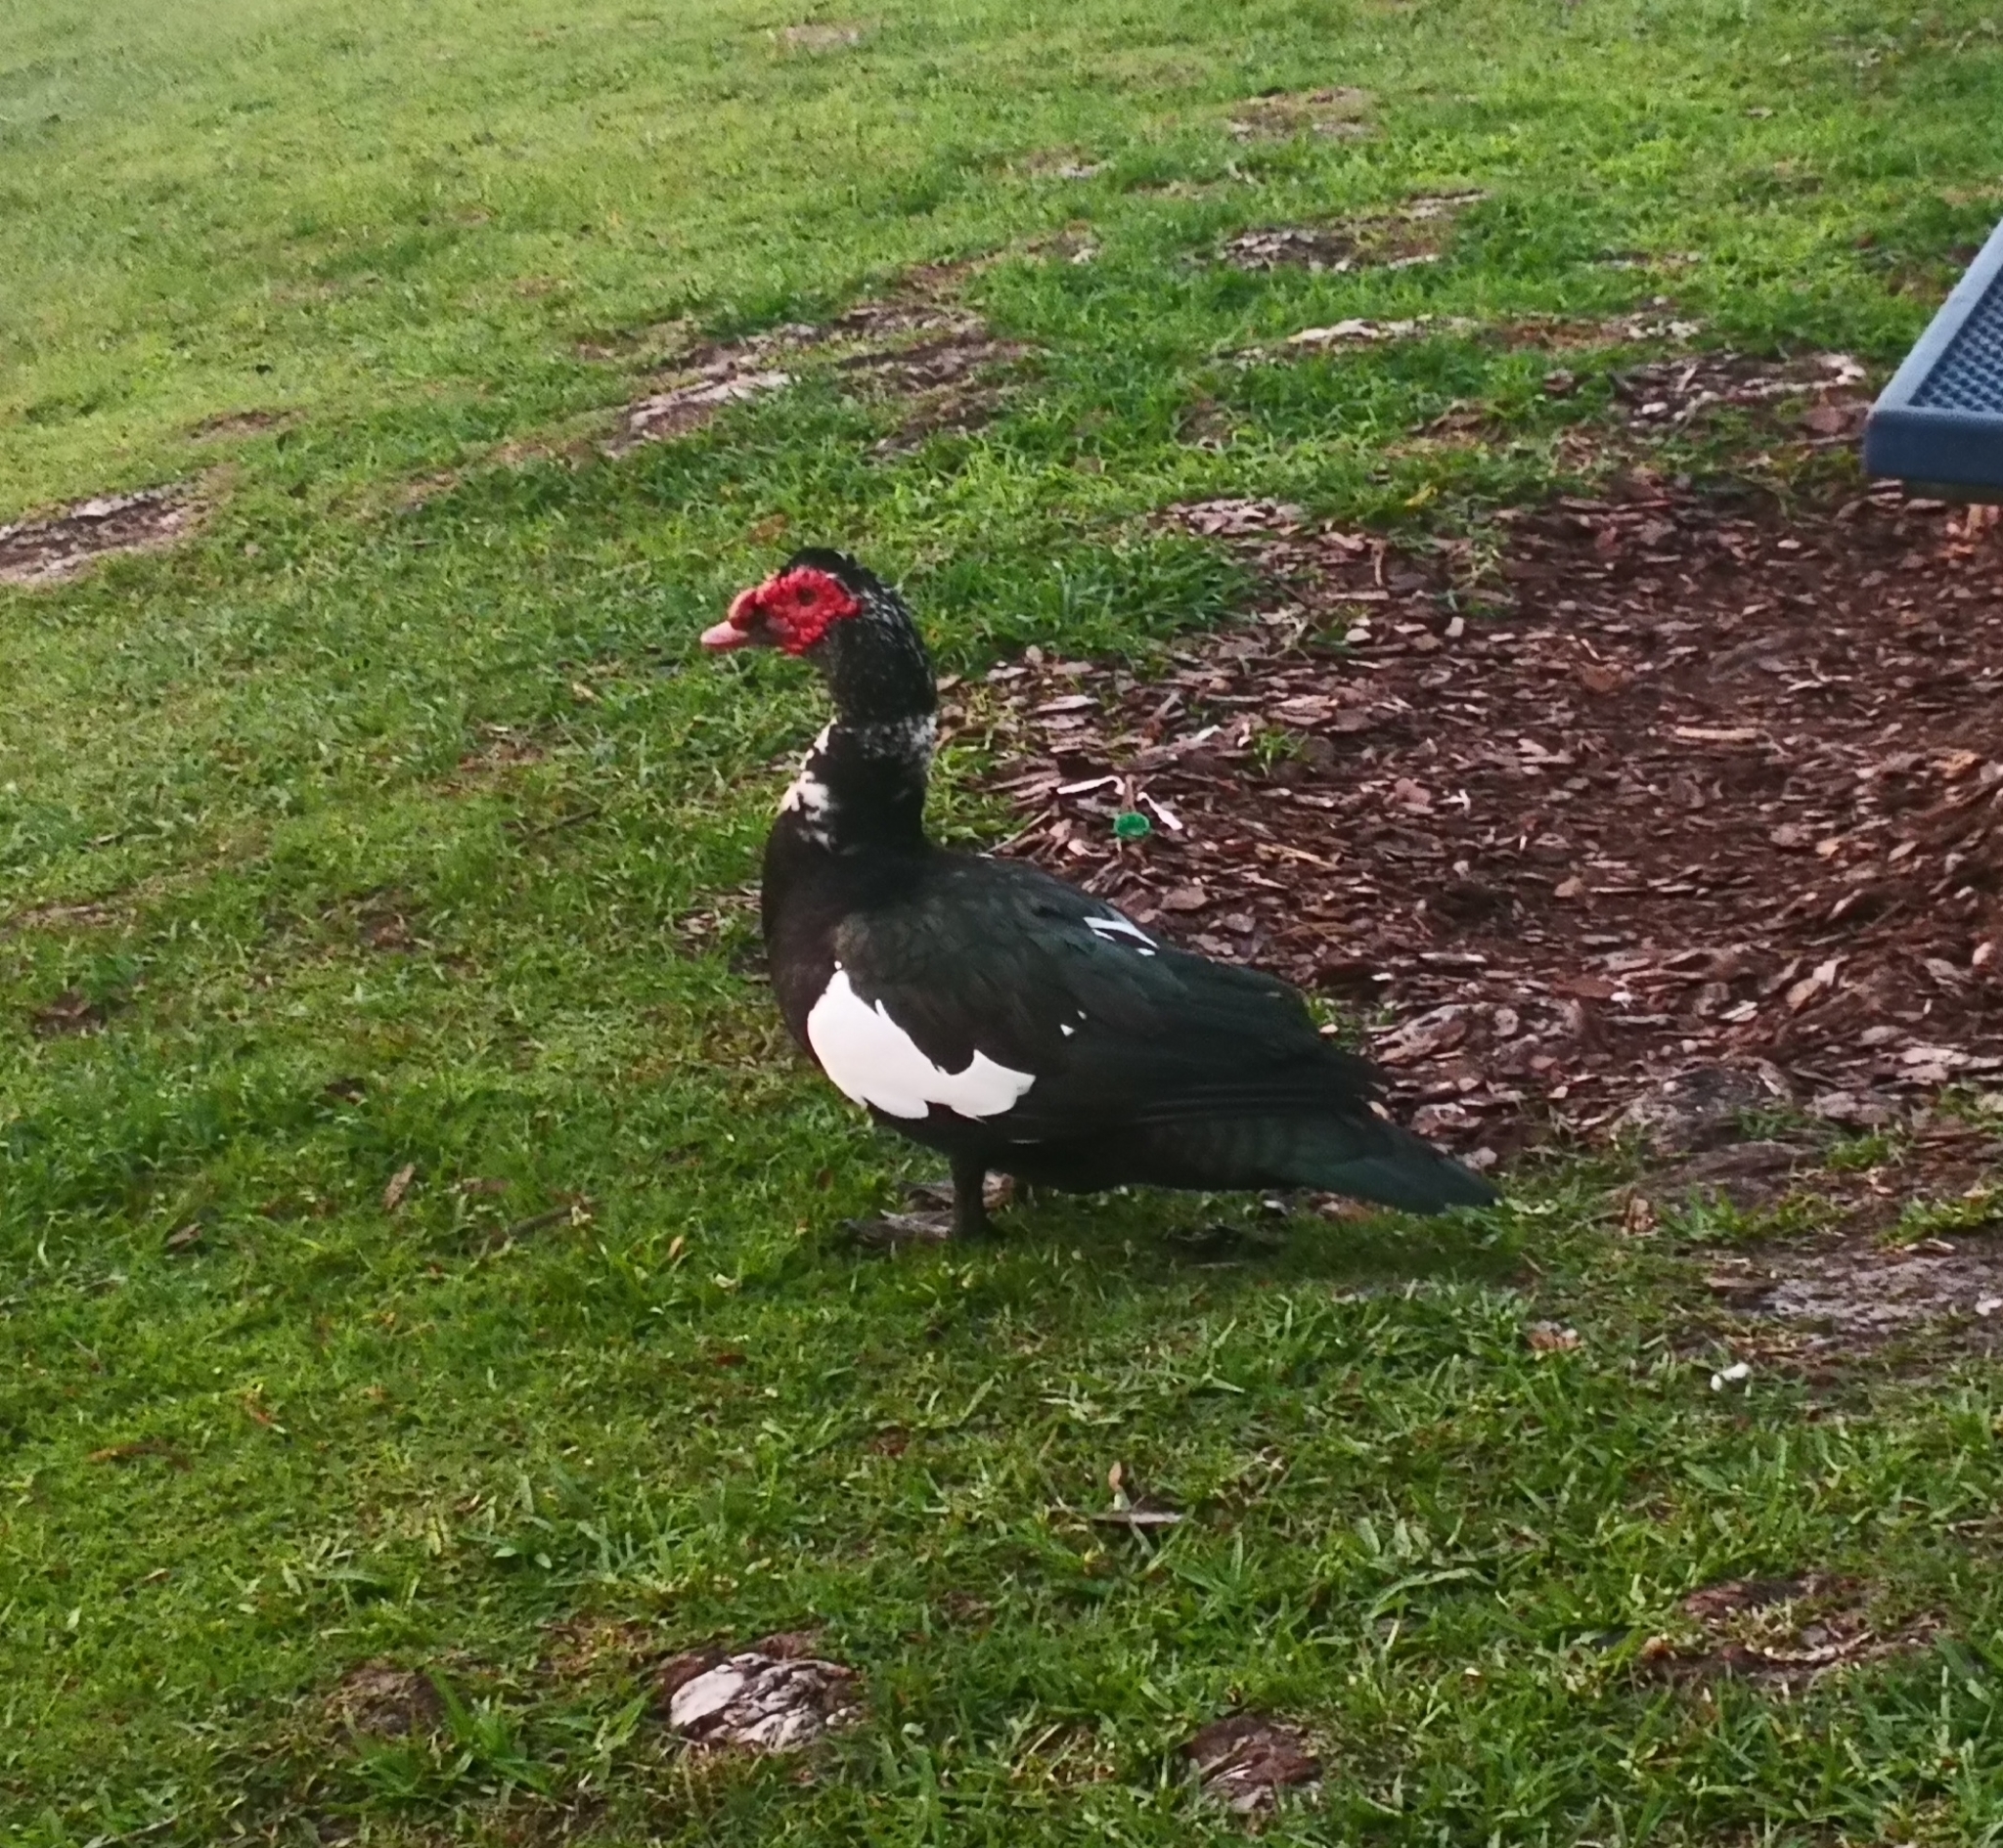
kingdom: Animalia
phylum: Chordata
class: Aves
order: Anseriformes
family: Anatidae
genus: Cairina
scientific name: Cairina moschata
